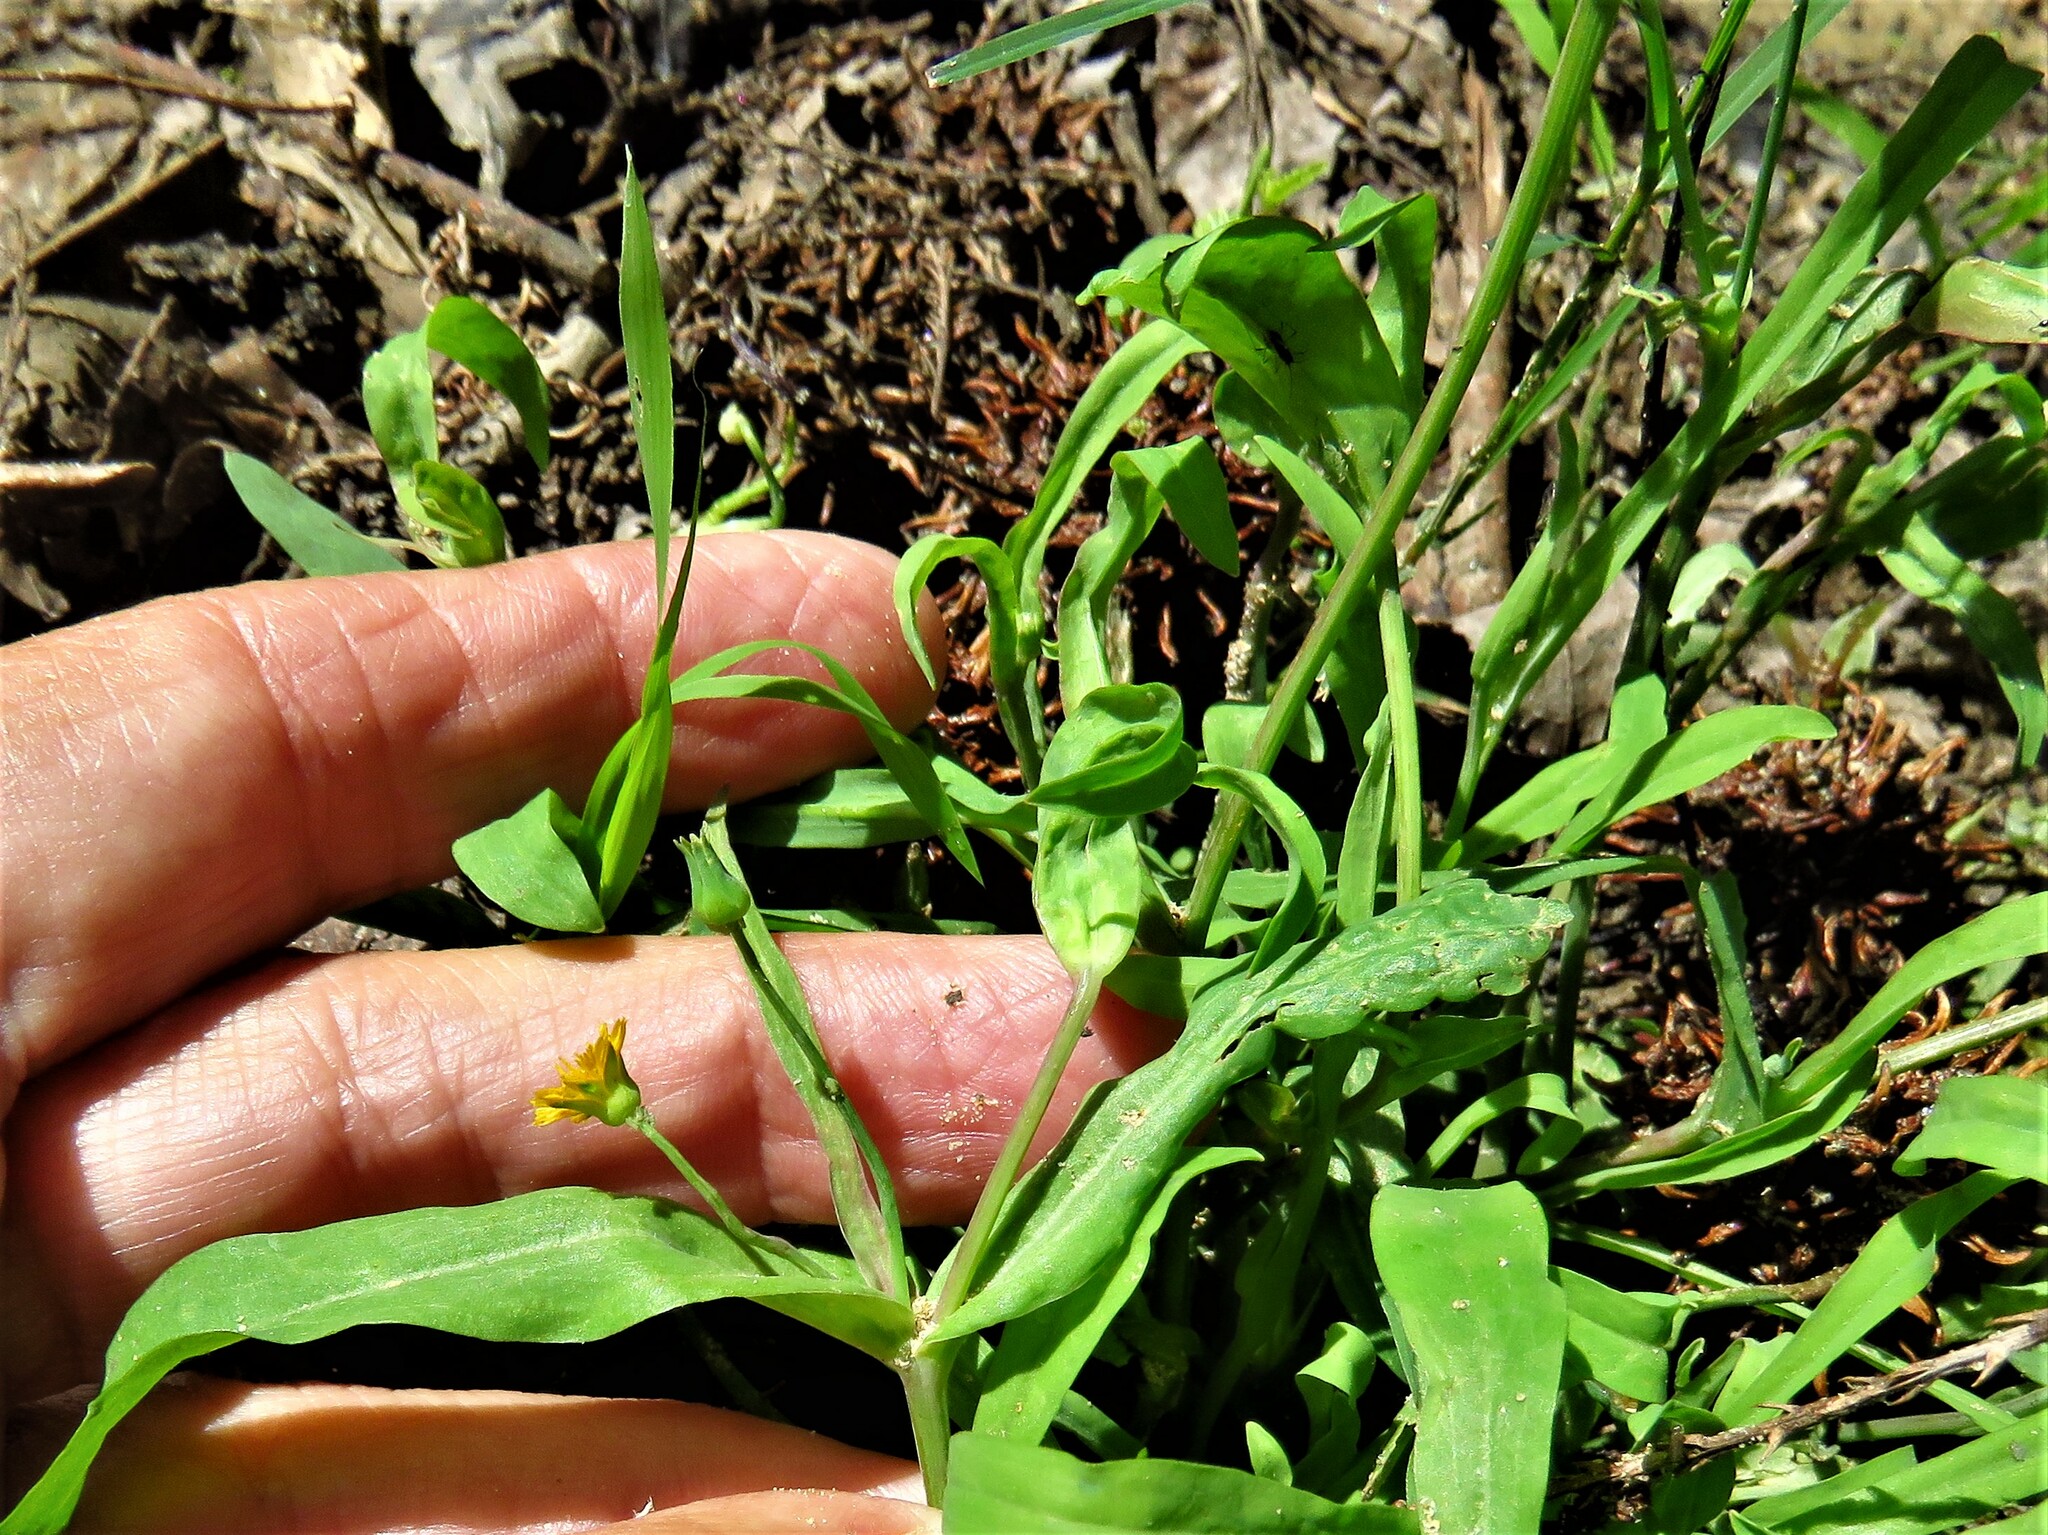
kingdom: Plantae
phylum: Tracheophyta
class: Magnoliopsida
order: Asterales
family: Asteraceae
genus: Krigia
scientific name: Krigia cespitosa
